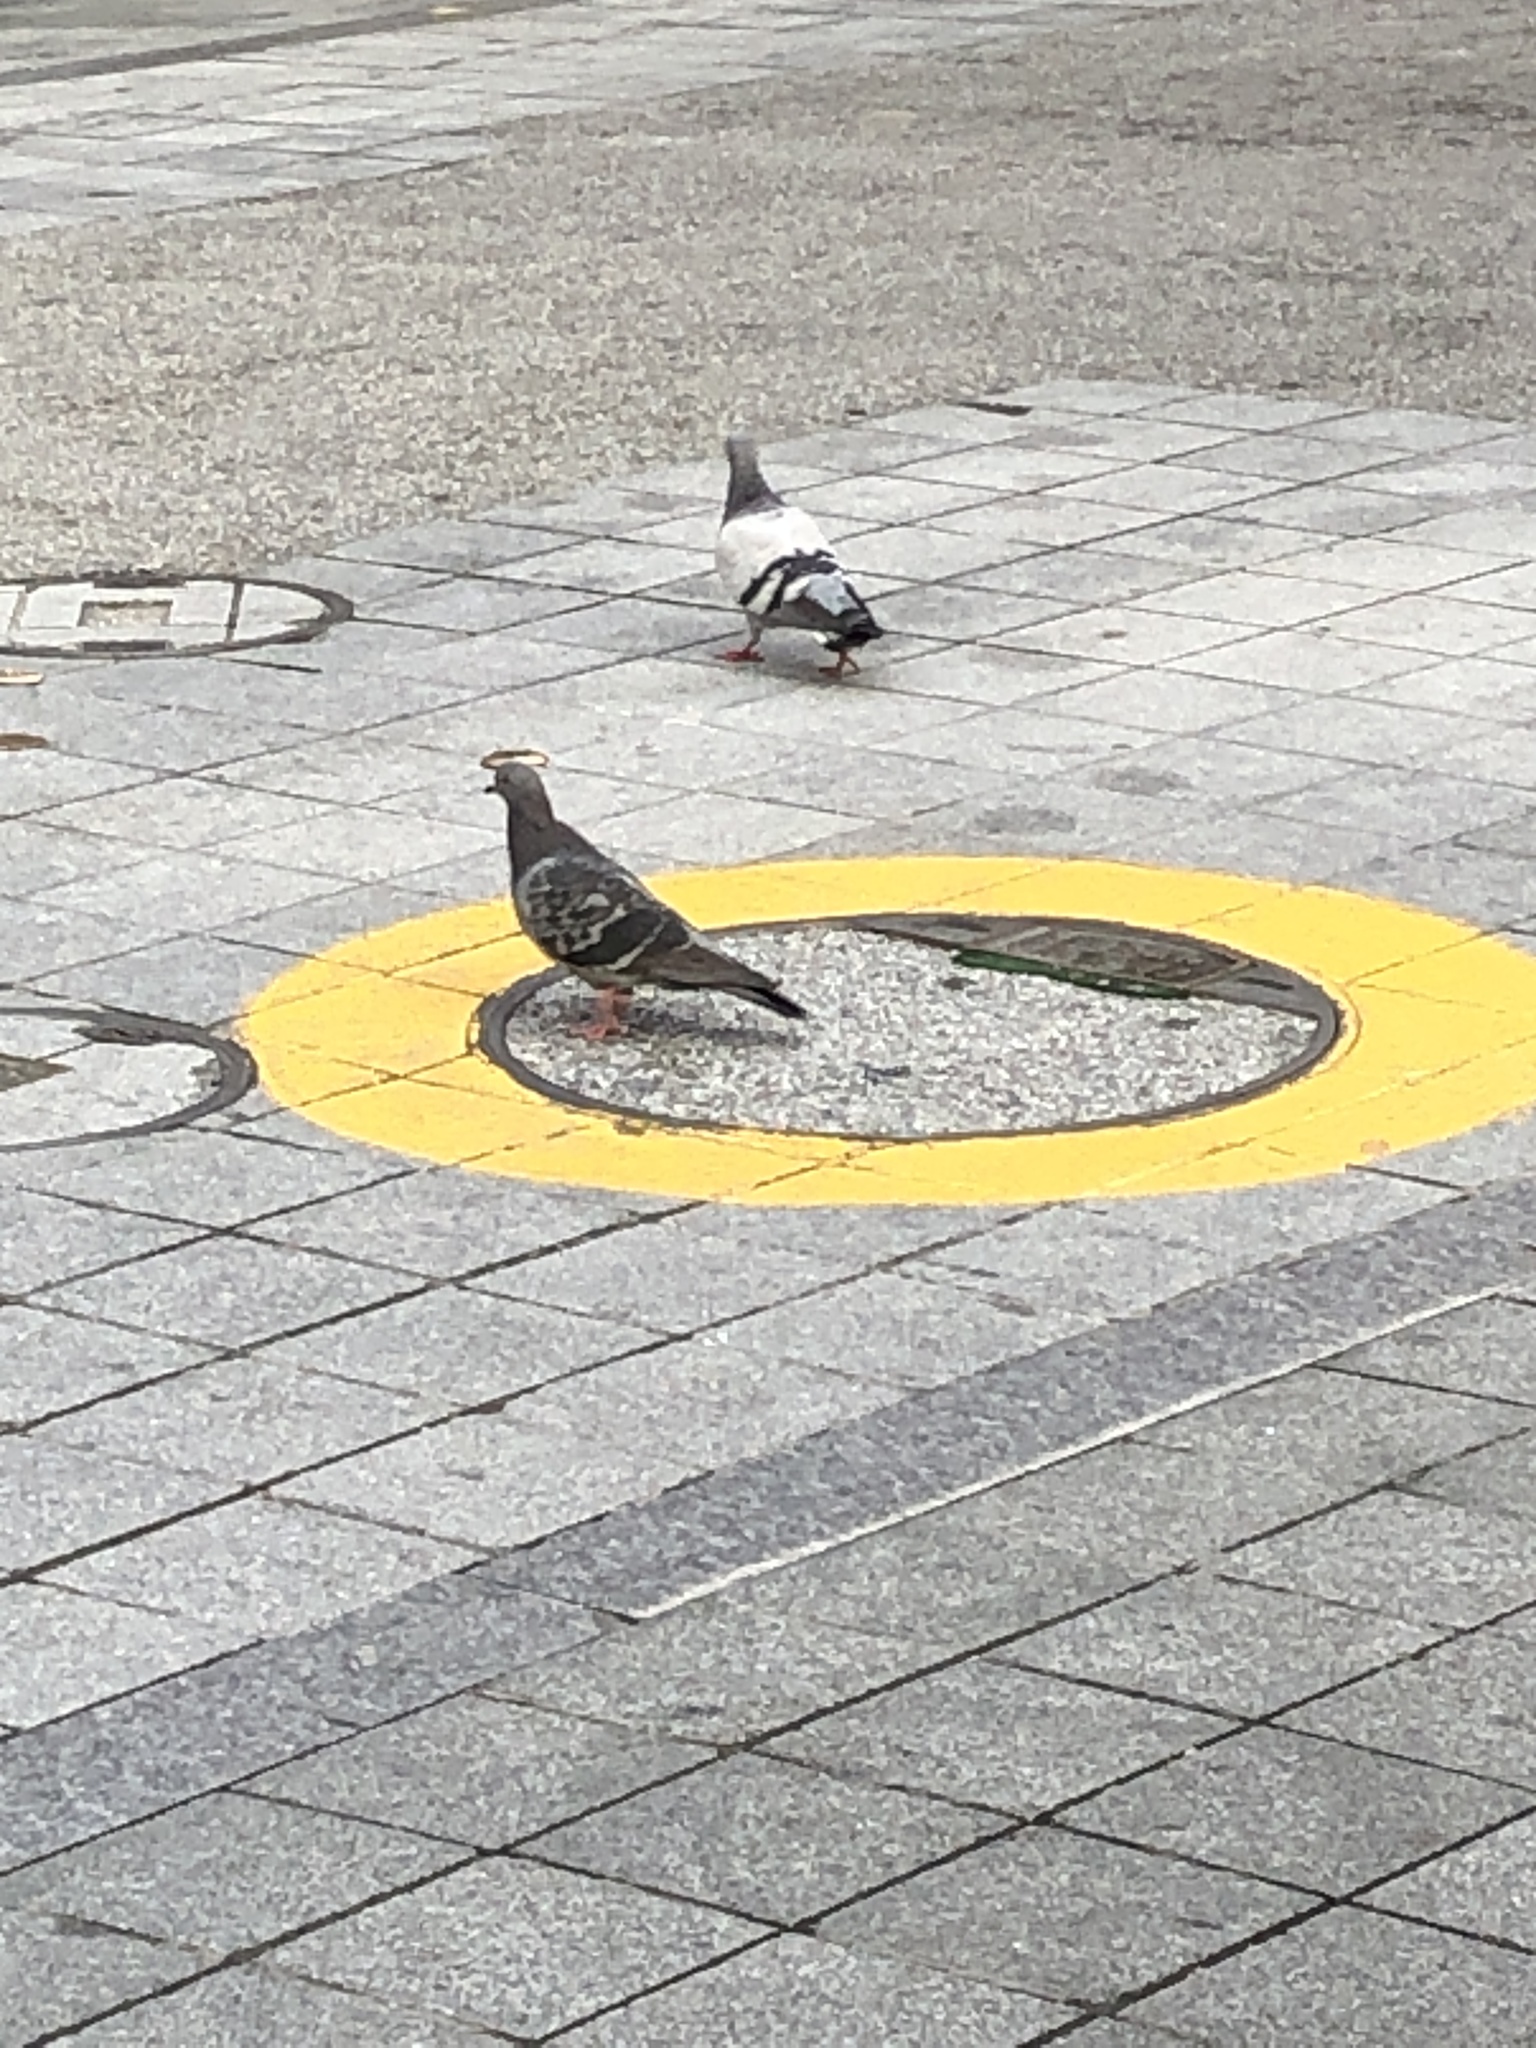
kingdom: Animalia
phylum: Chordata
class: Aves
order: Columbiformes
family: Columbidae
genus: Columba
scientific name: Columba livia
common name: Rock pigeon
